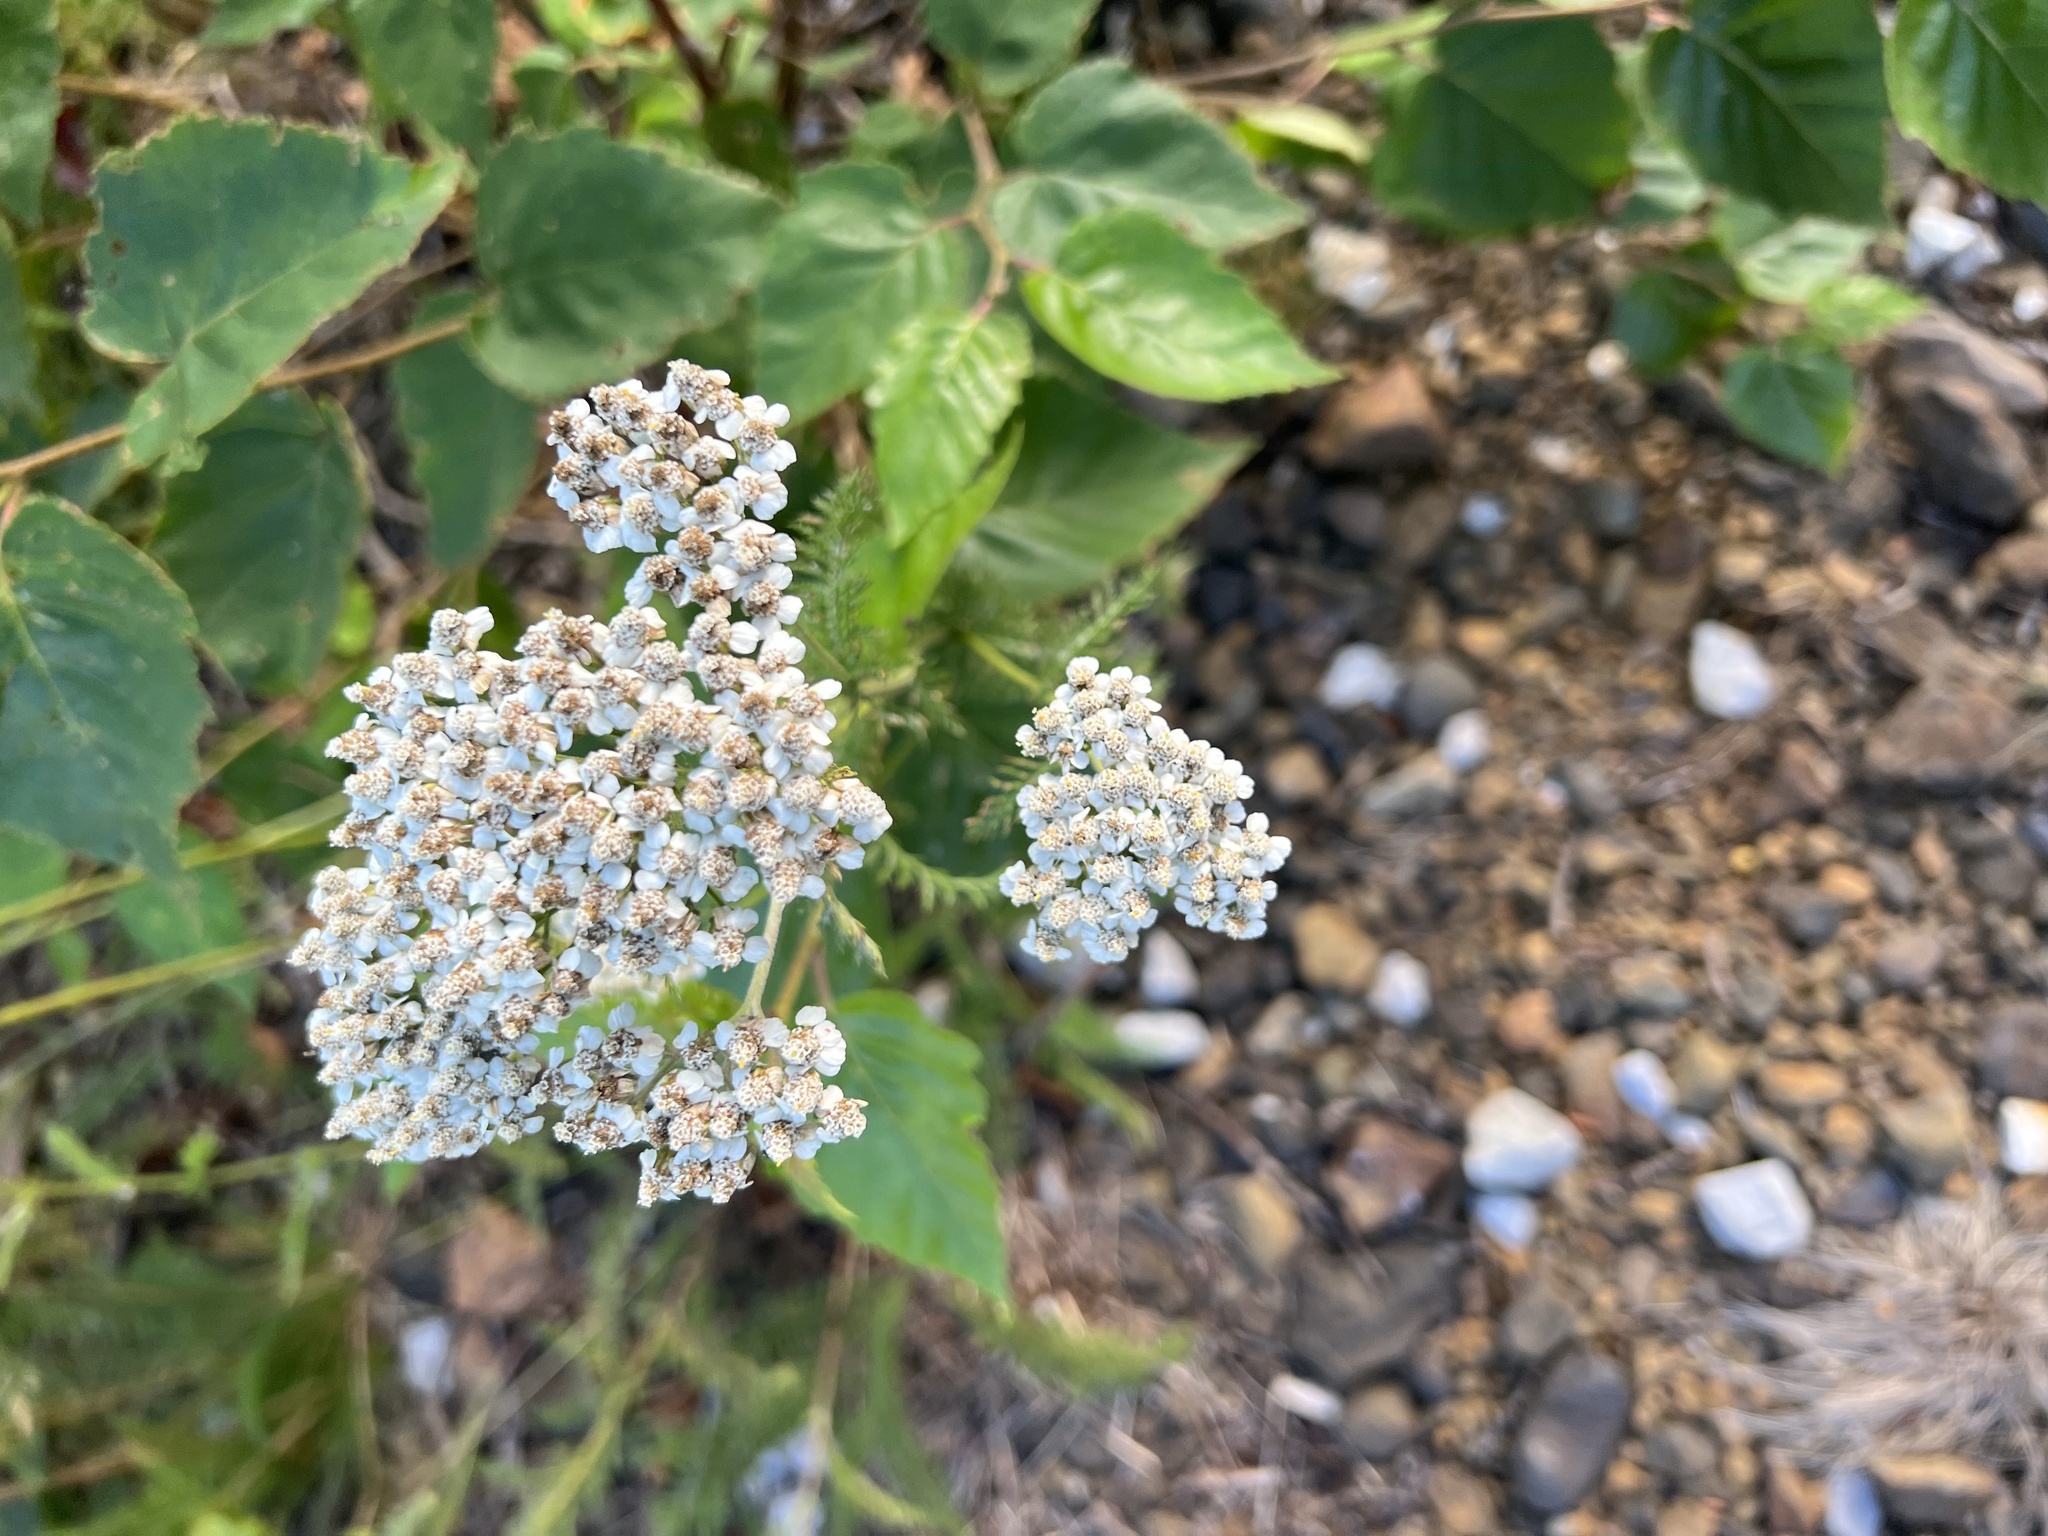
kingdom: Plantae
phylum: Tracheophyta
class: Magnoliopsida
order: Asterales
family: Asteraceae
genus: Achillea
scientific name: Achillea millefolium
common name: Yarrow
